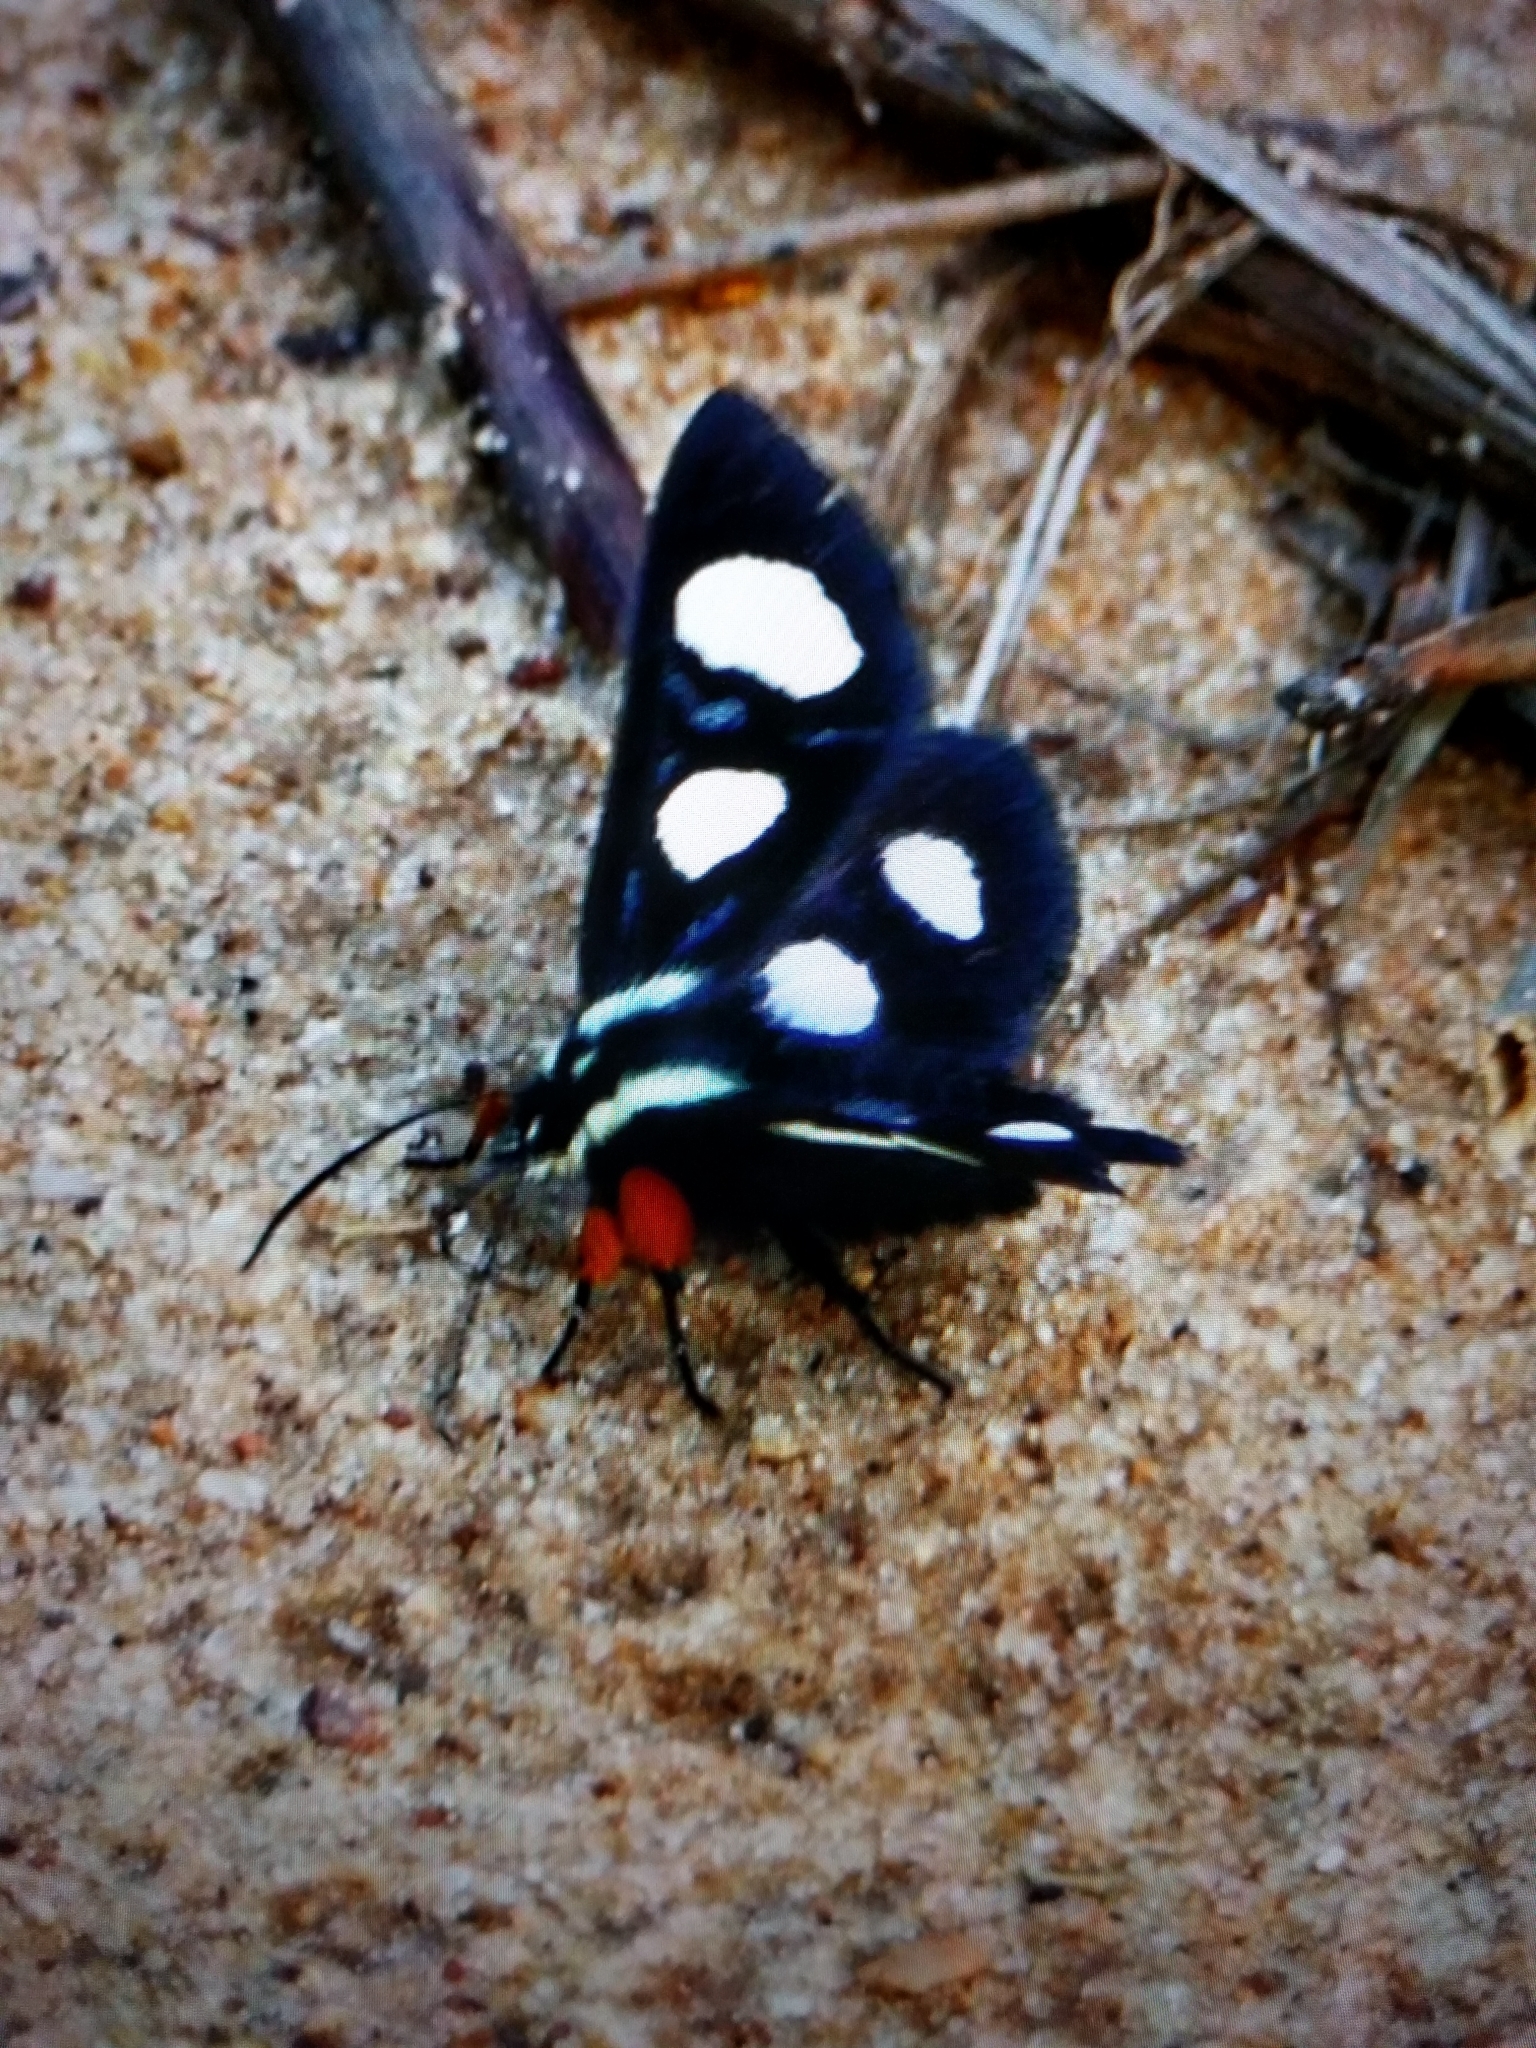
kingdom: Animalia
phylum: Arthropoda
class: Insecta
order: Lepidoptera
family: Noctuidae
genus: Alypia
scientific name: Alypia octomaculata
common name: Eight-spotted forester
